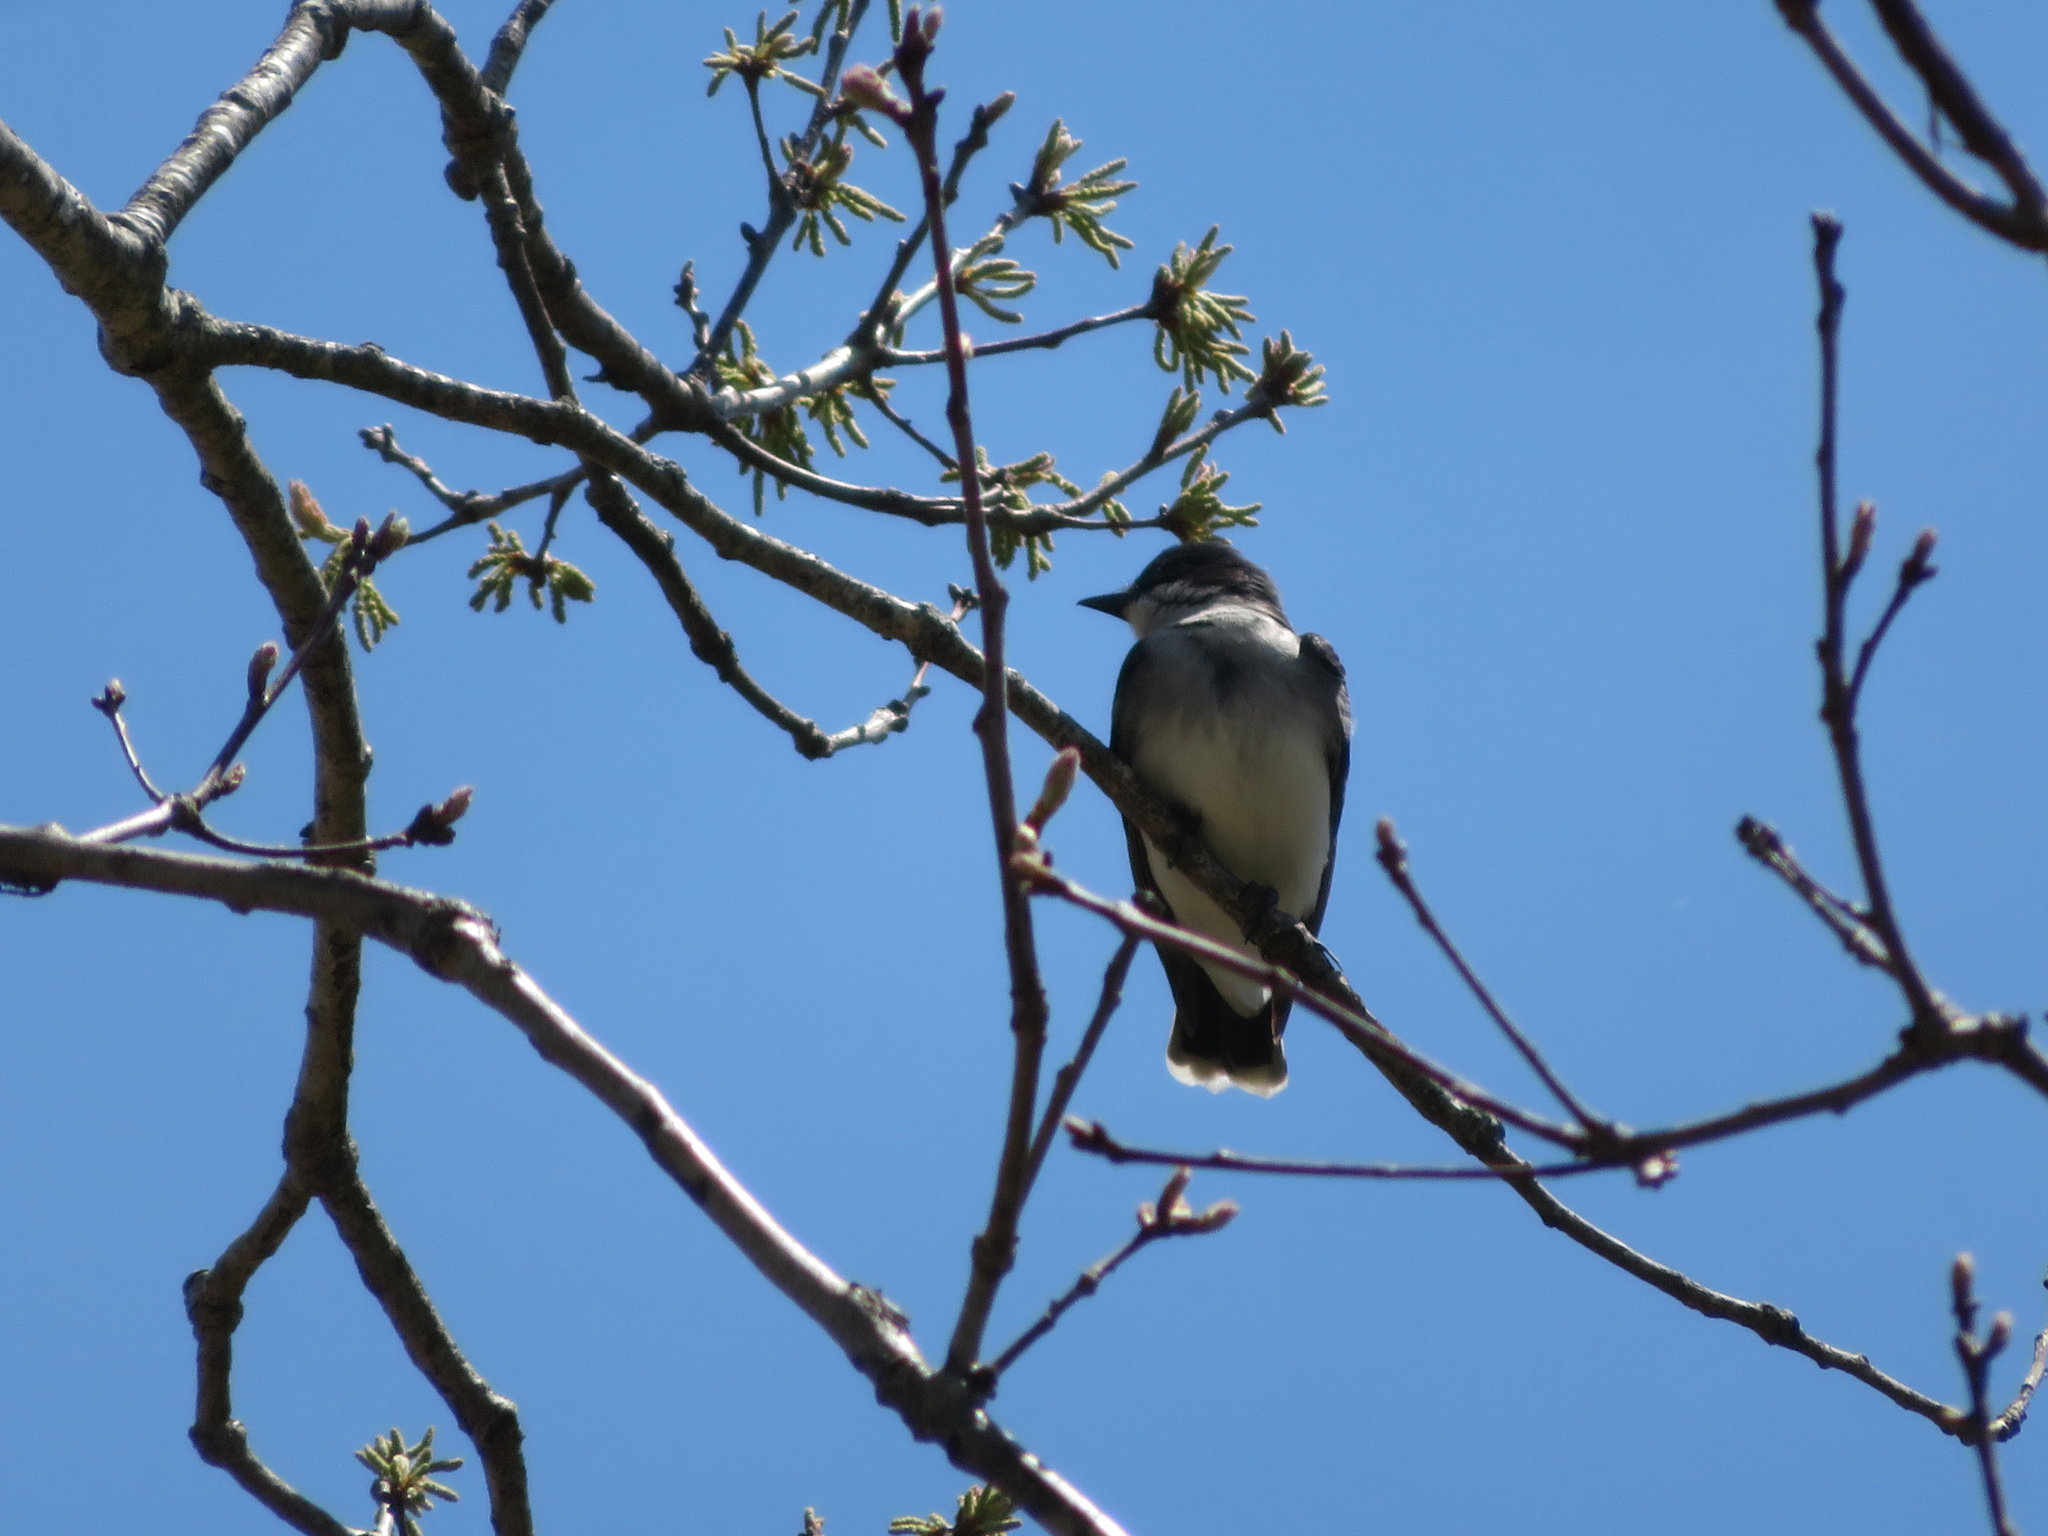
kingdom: Animalia
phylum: Chordata
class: Aves
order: Passeriformes
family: Tyrannidae
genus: Tyrannus
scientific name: Tyrannus tyrannus
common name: Eastern kingbird
